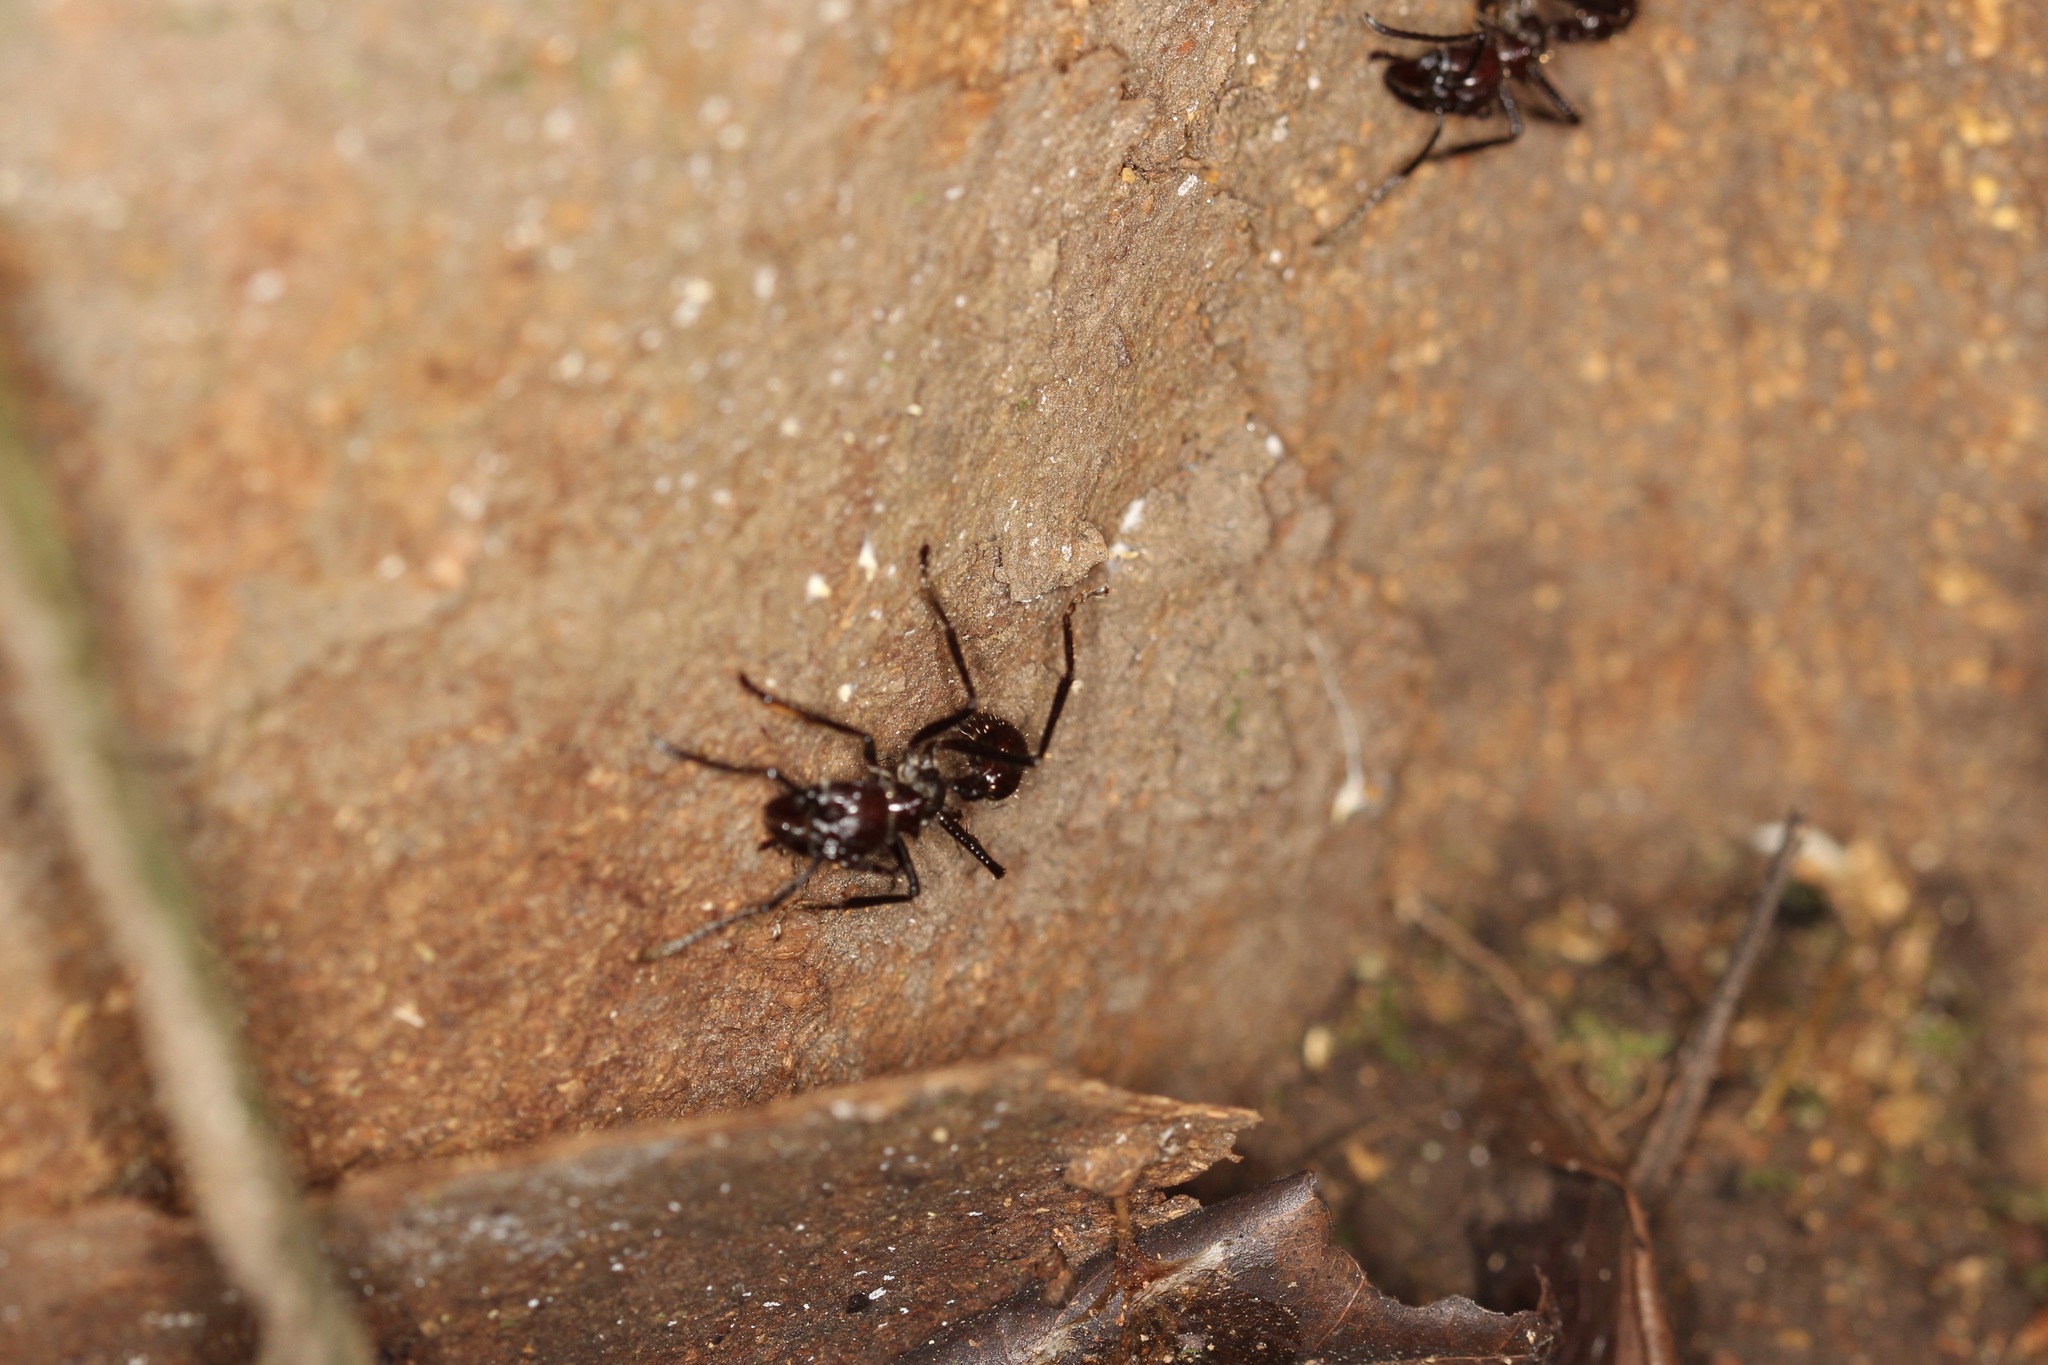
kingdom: Animalia
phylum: Arthropoda
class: Insecta
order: Hymenoptera
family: Formicidae
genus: Paraponera
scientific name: Paraponera clavata
